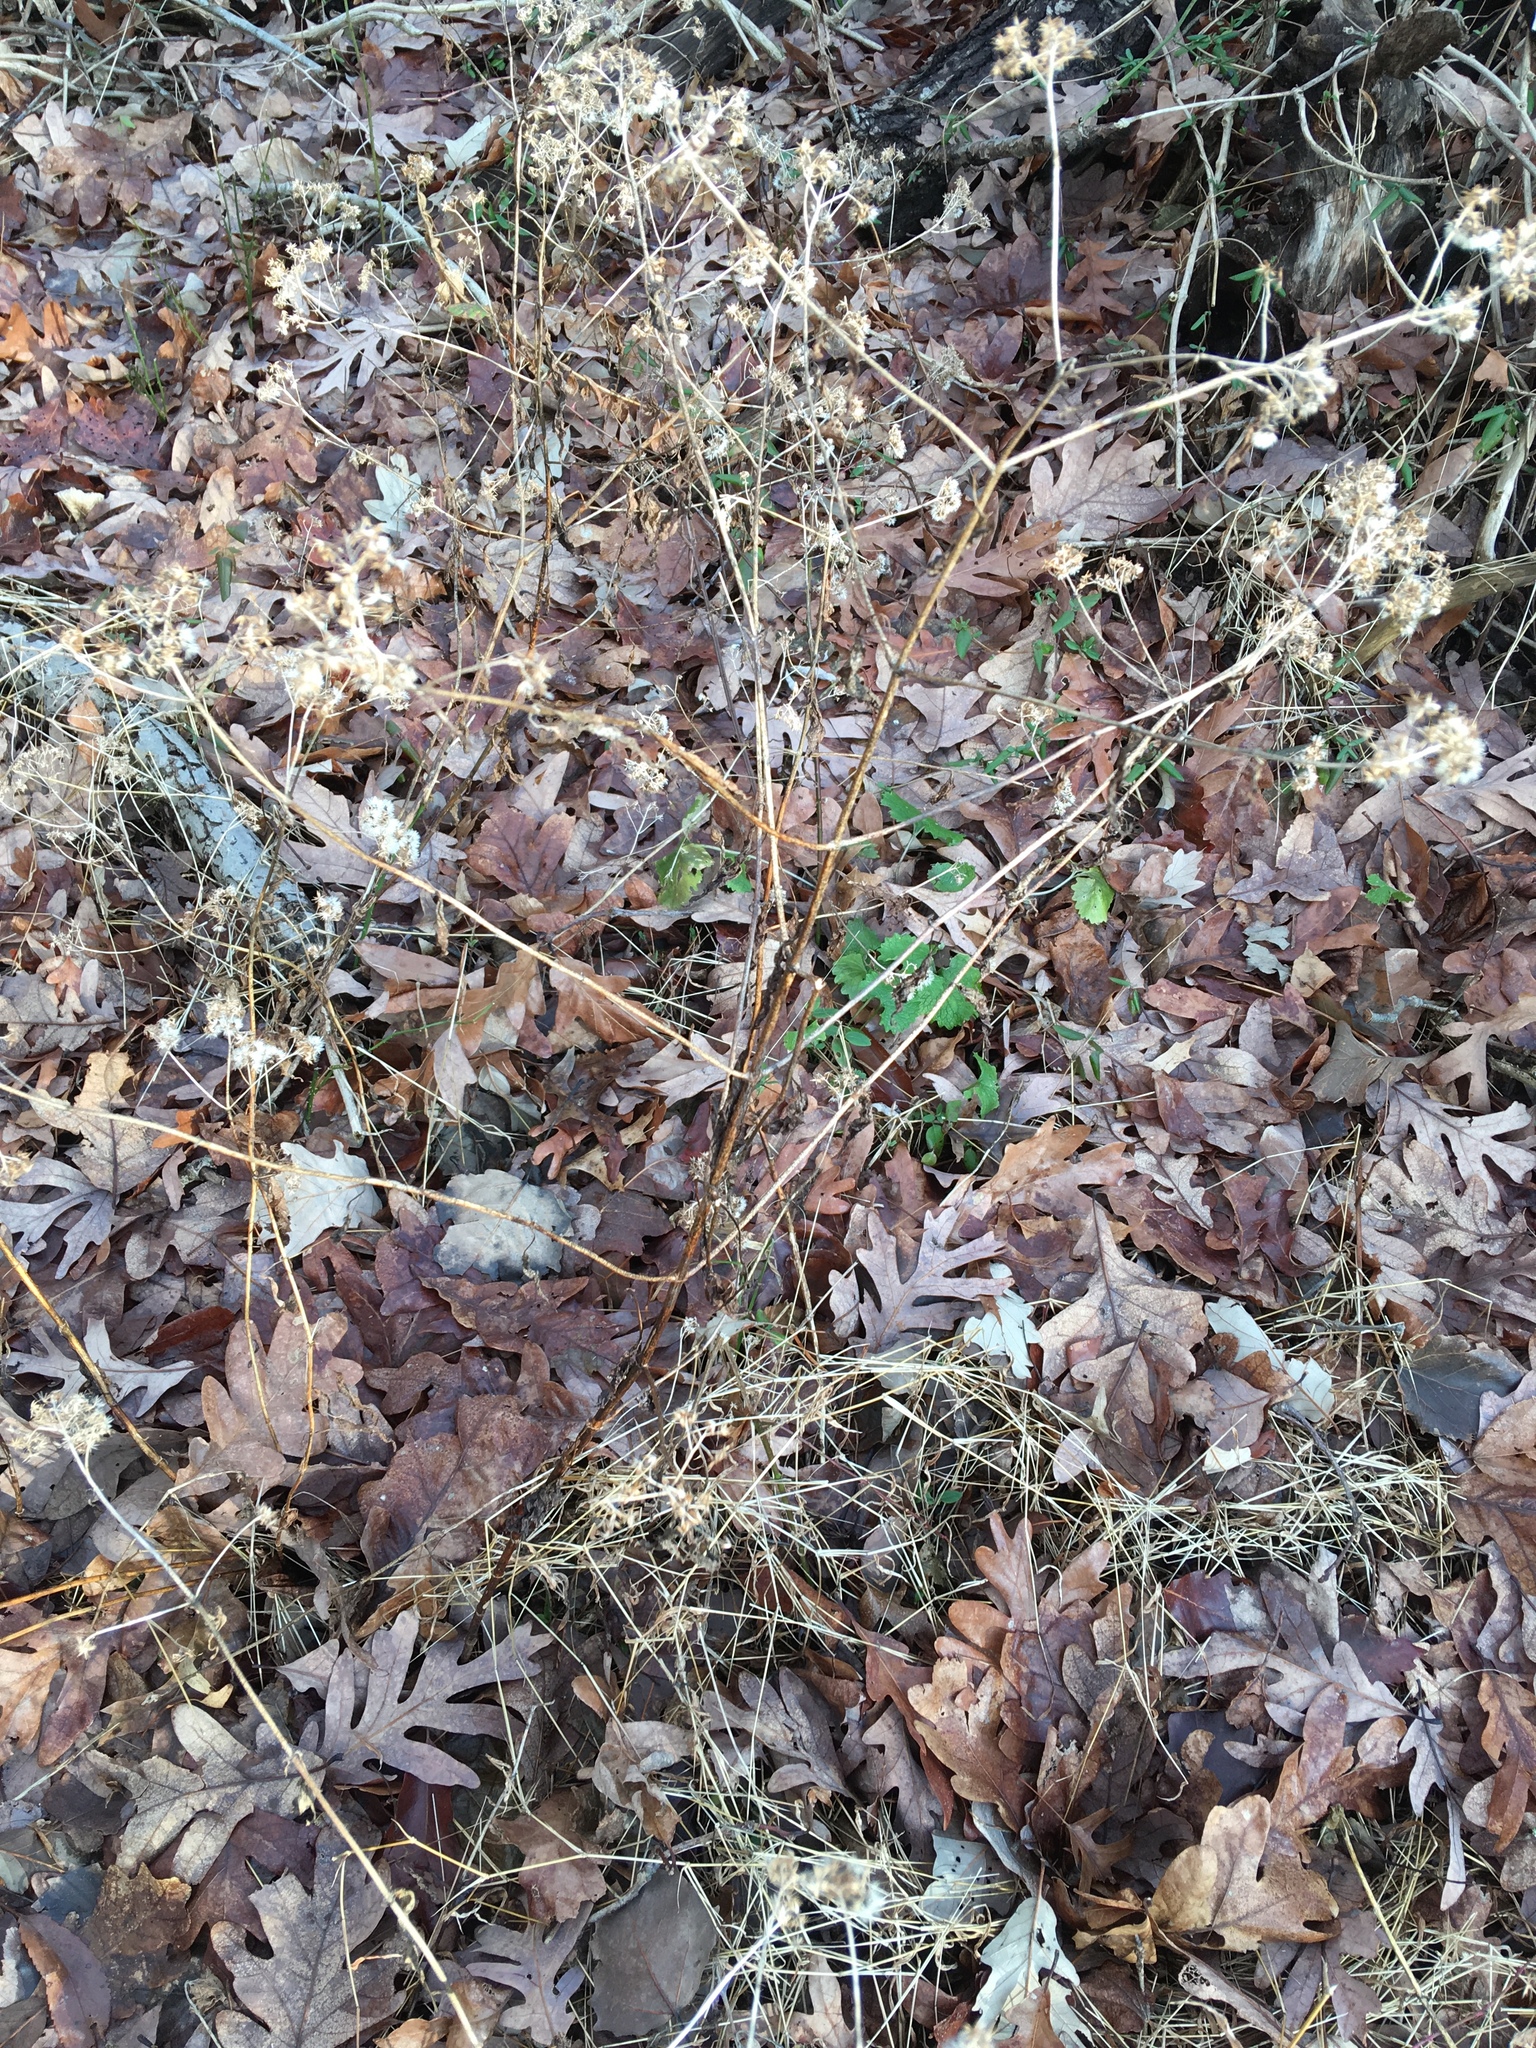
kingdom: Plantae
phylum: Tracheophyta
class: Magnoliopsida
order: Asterales
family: Asteraceae
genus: Ageratina
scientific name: Ageratina altissima
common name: White snakeroot
